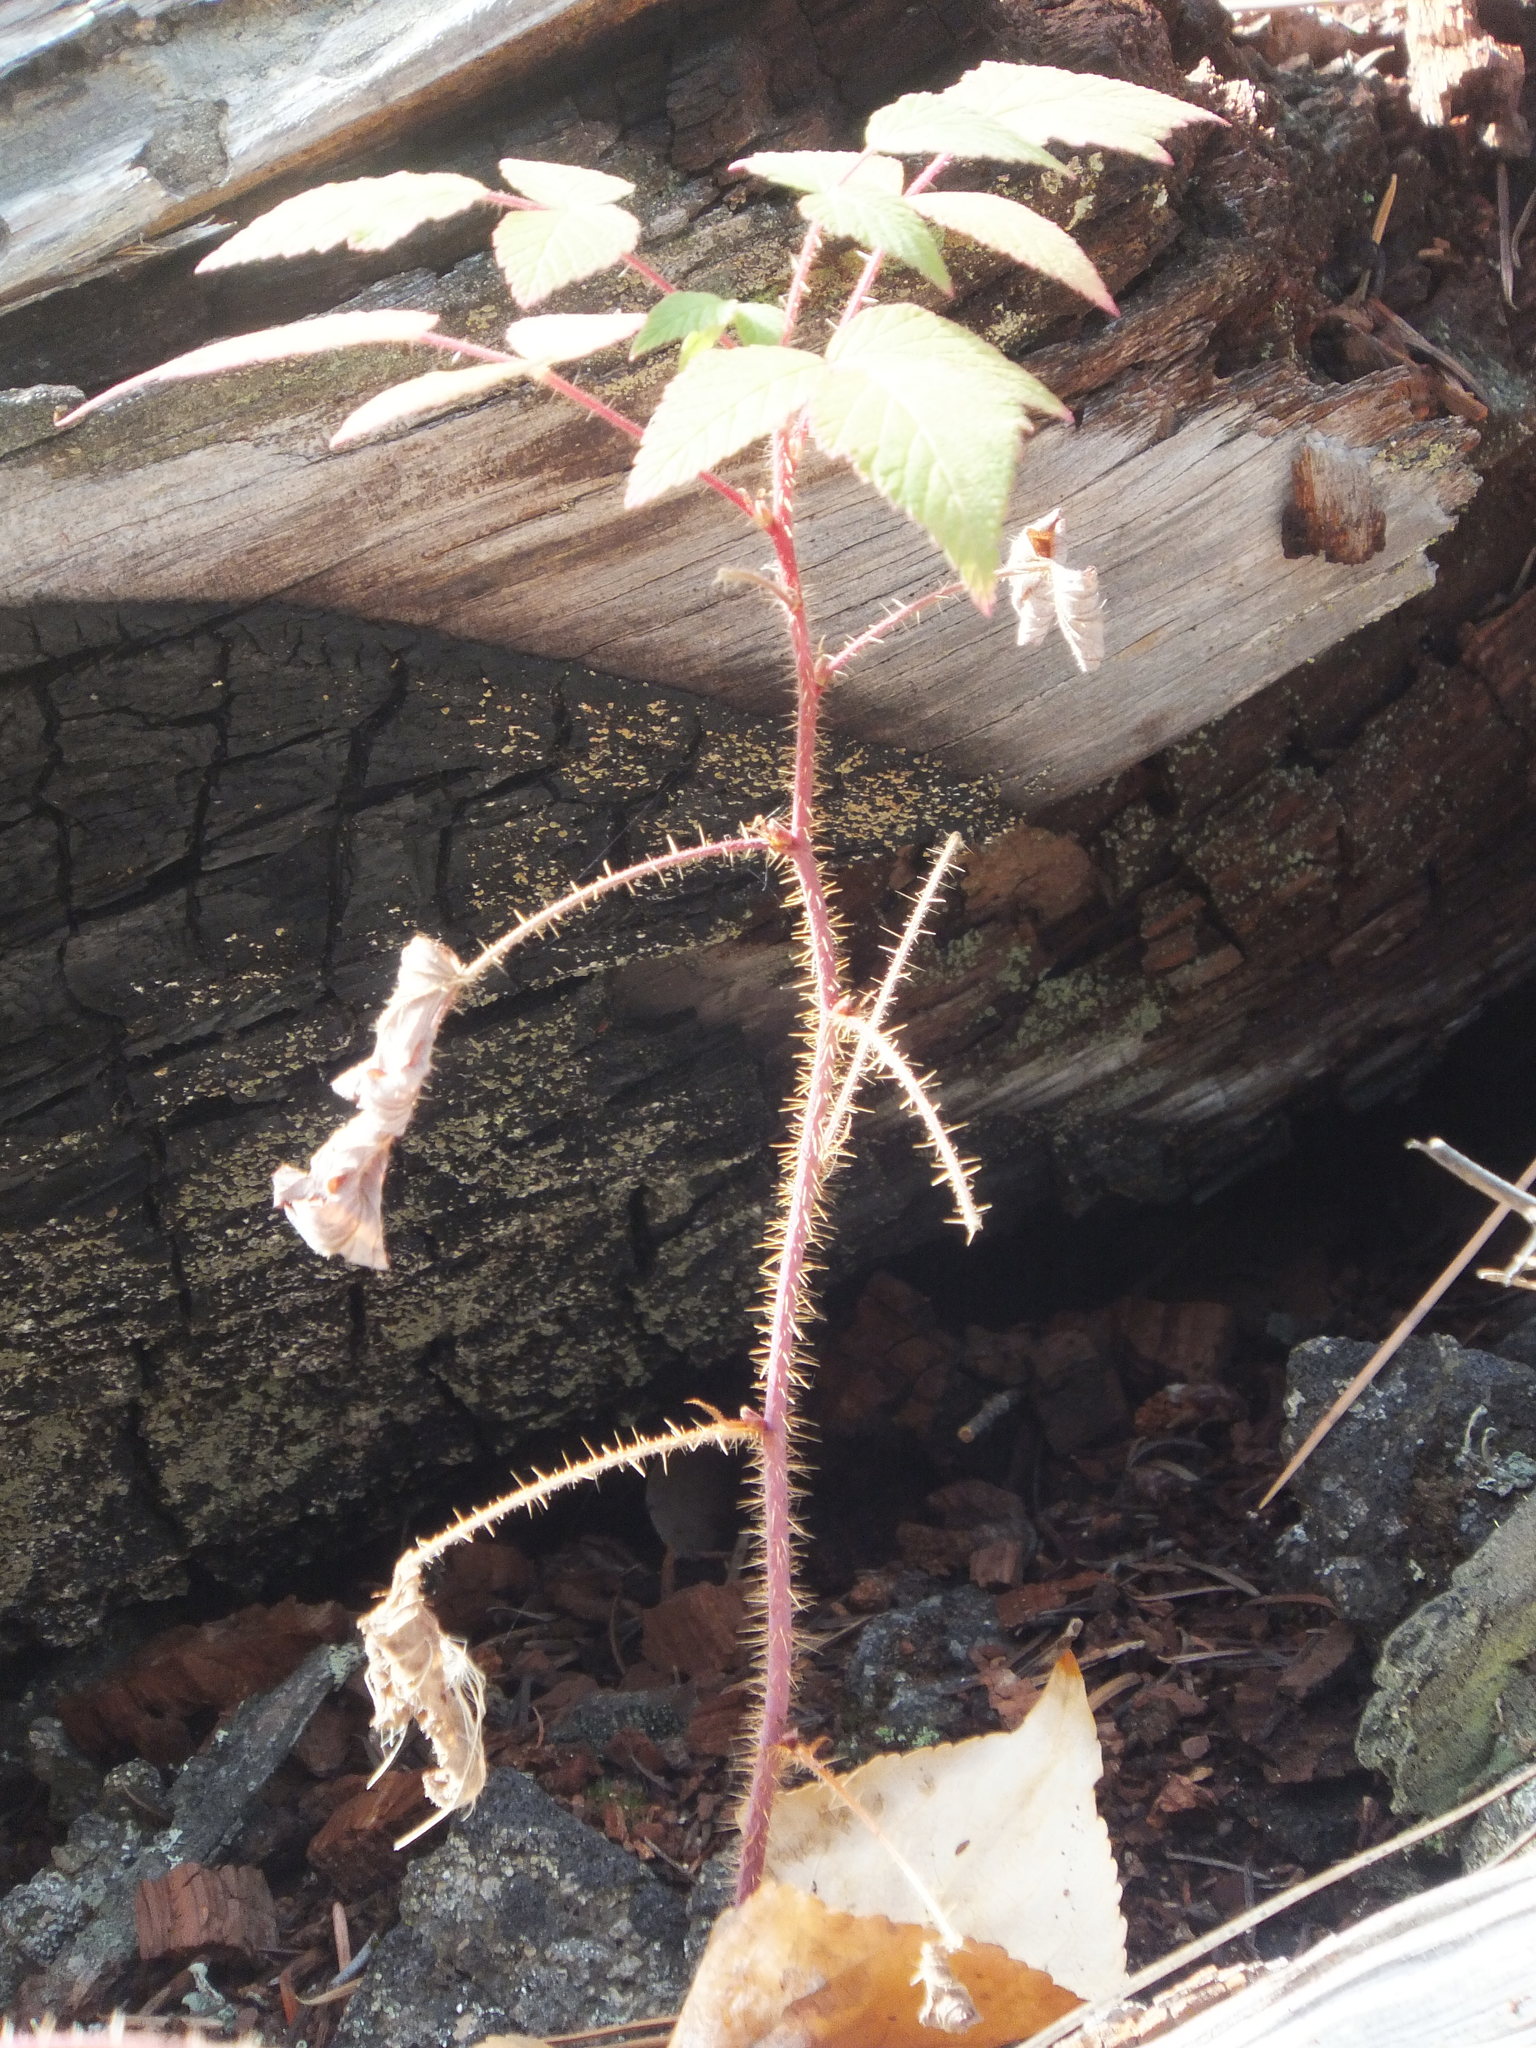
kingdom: Plantae
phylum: Tracheophyta
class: Magnoliopsida
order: Rosales
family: Rosaceae
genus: Rubus
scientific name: Rubus idaeus
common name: Raspberry
